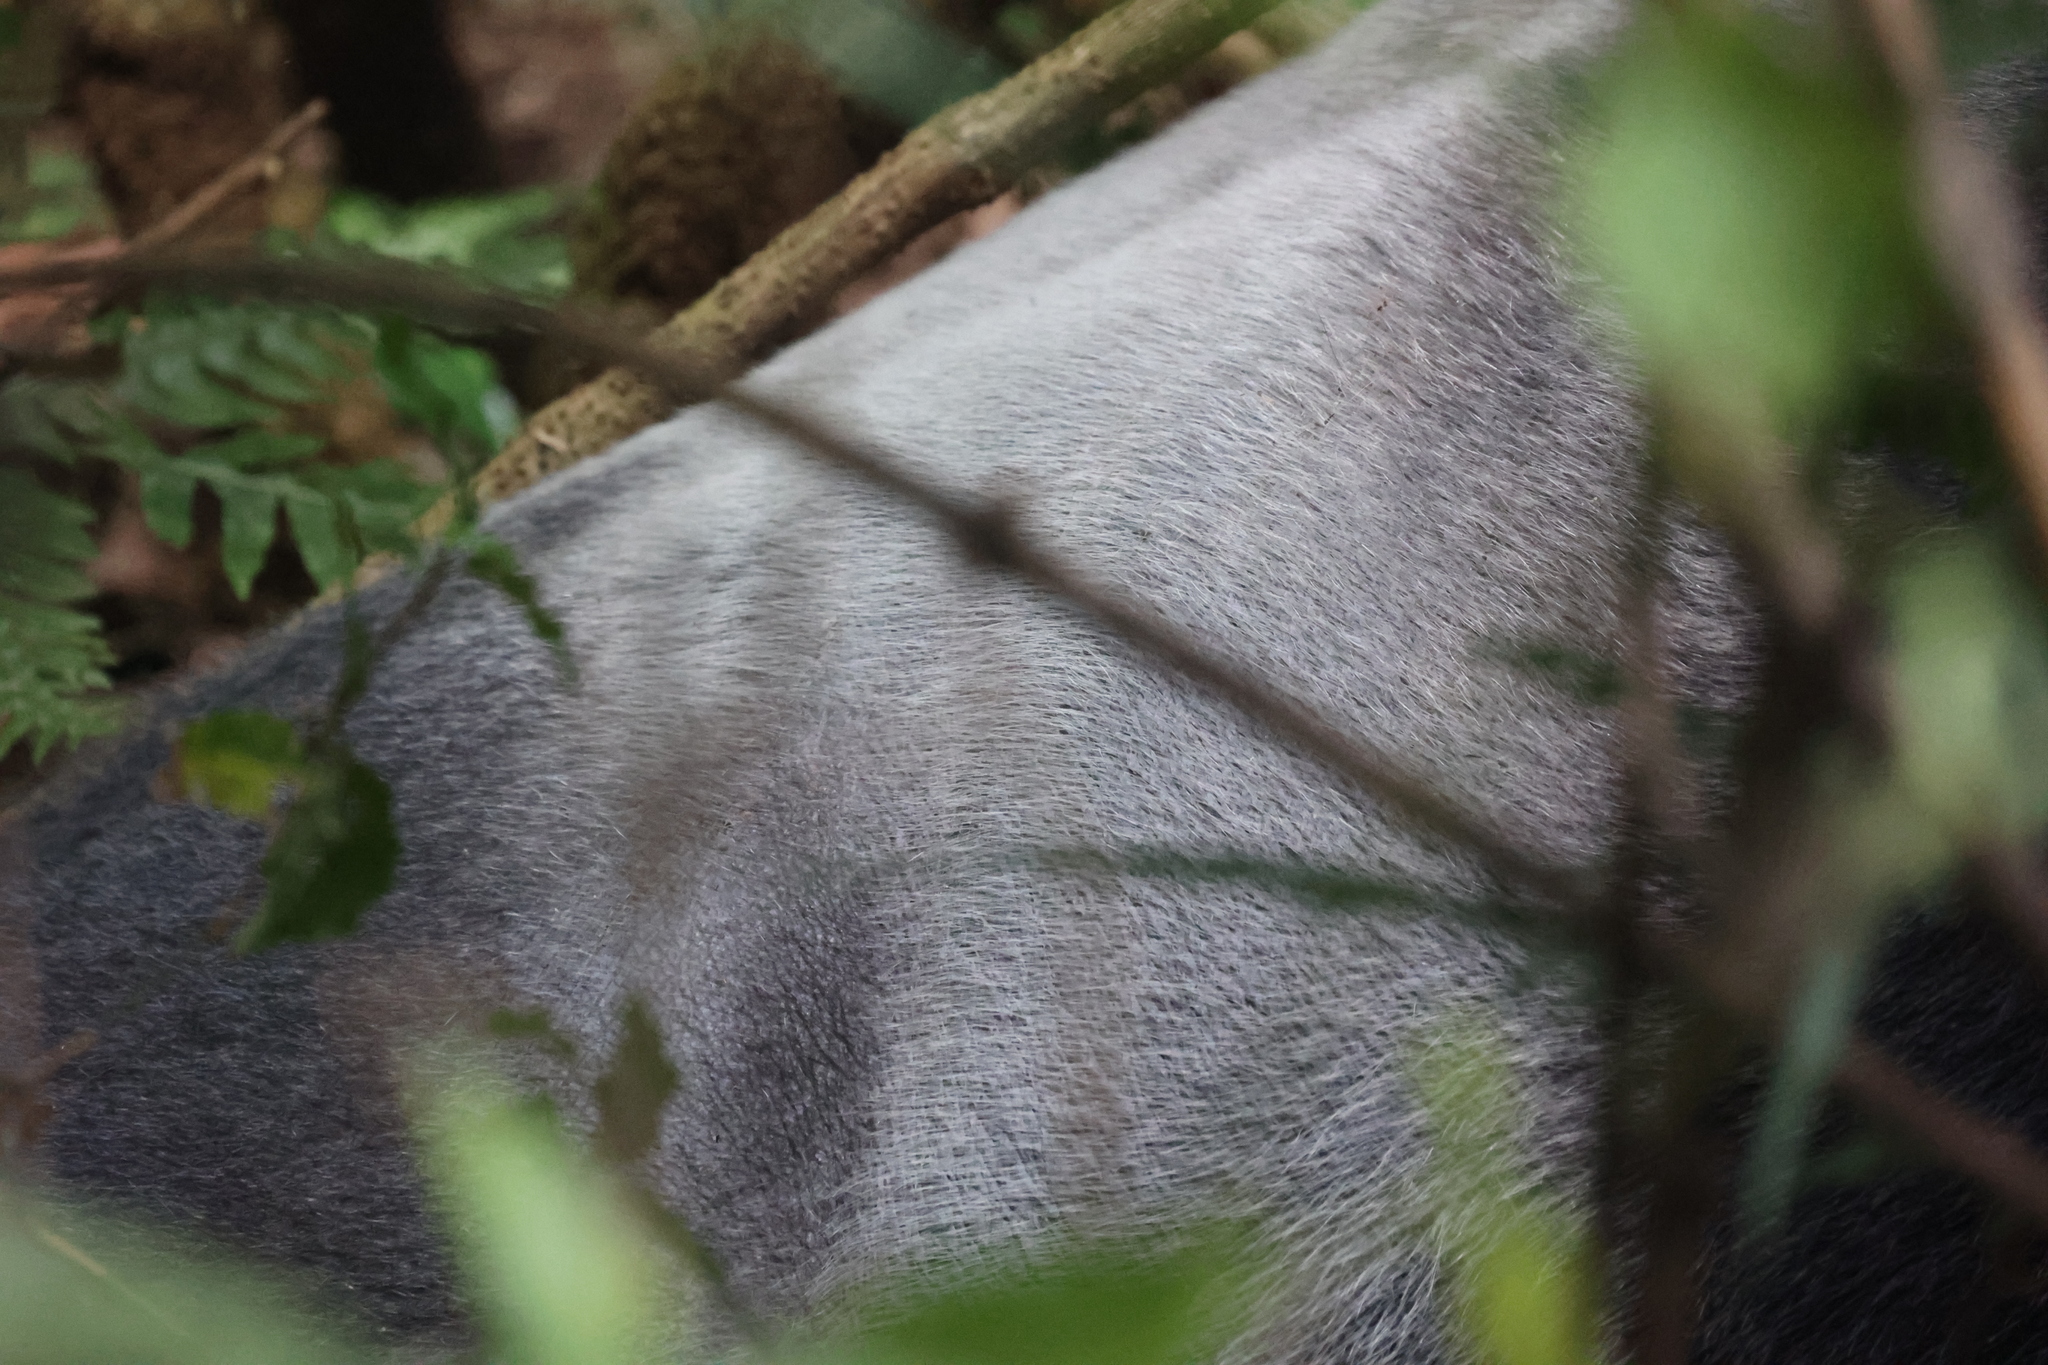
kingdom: Animalia
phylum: Chordata
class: Mammalia
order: Primates
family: Hominidae
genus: Gorilla
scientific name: Gorilla beringei
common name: Eastern gorilla
